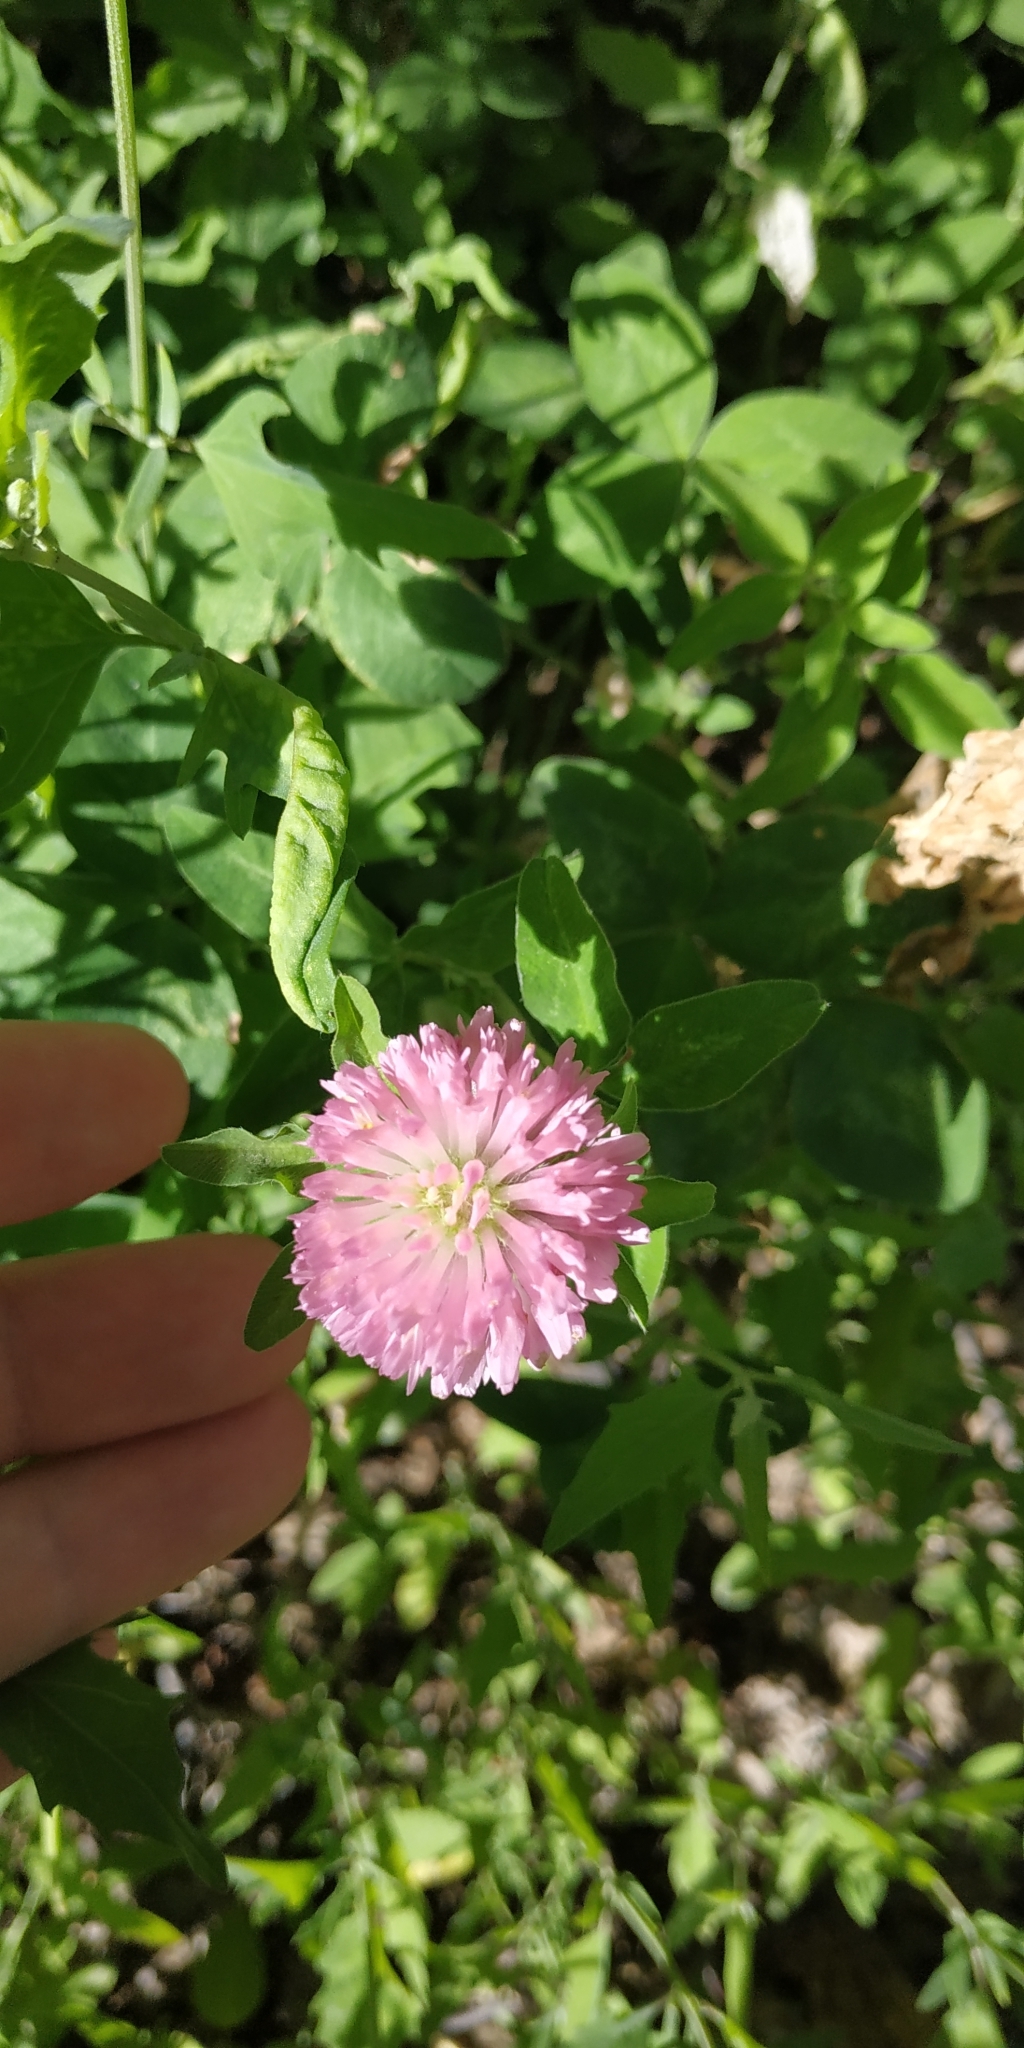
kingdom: Plantae
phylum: Tracheophyta
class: Magnoliopsida
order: Fabales
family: Fabaceae
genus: Trifolium
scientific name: Trifolium pratense
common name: Red clover
